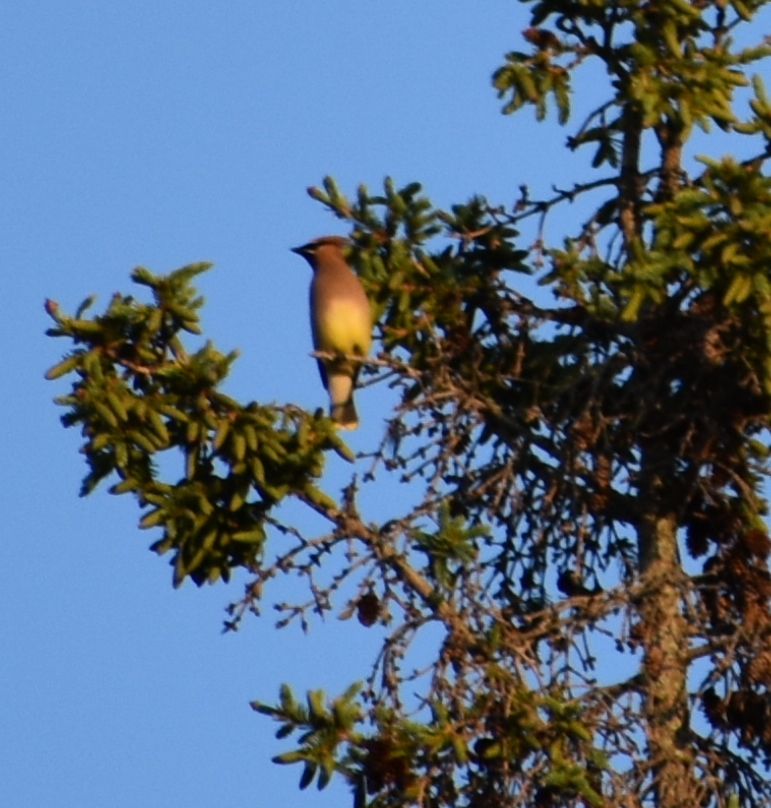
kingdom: Animalia
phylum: Chordata
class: Aves
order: Passeriformes
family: Bombycillidae
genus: Bombycilla
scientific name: Bombycilla cedrorum
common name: Cedar waxwing
